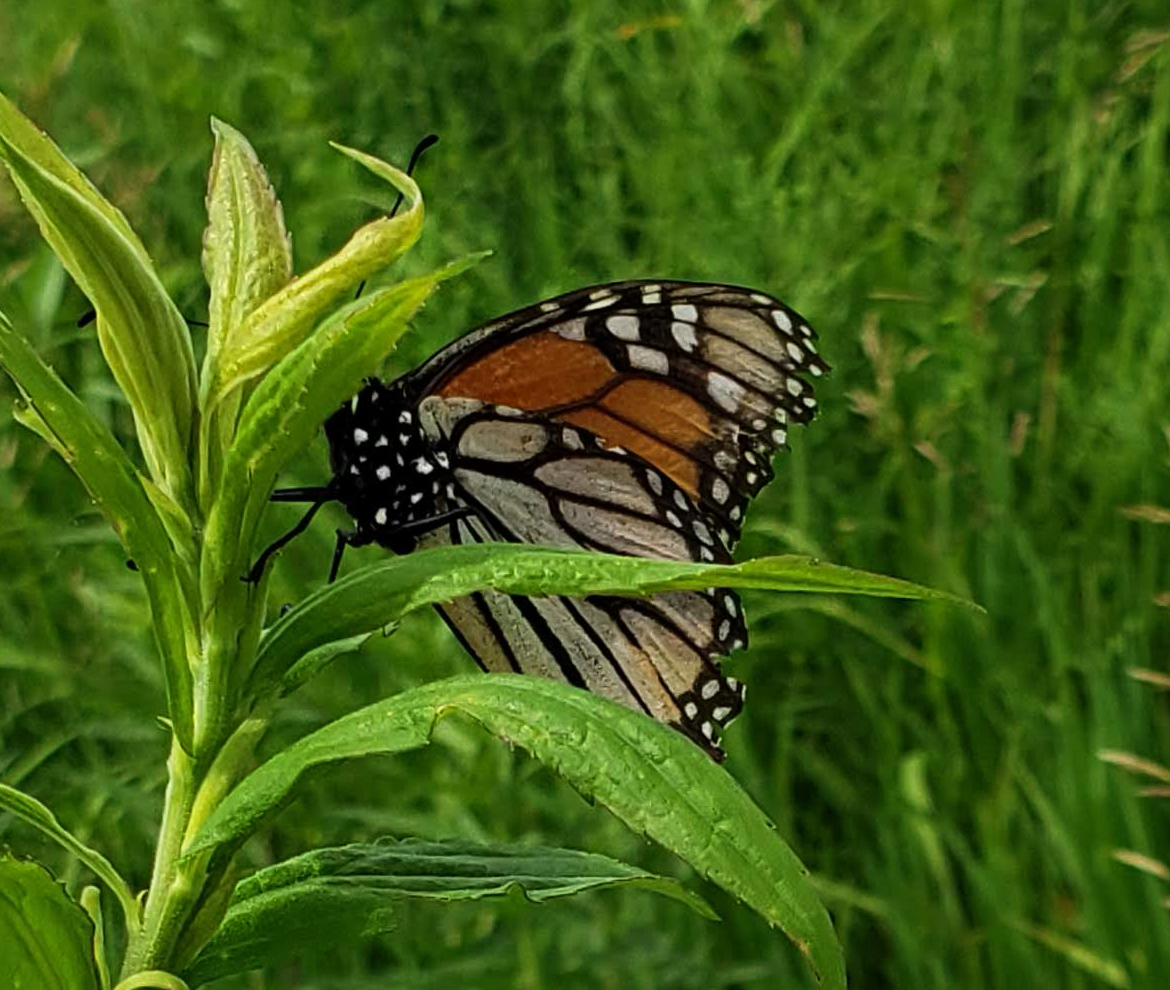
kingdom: Animalia
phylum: Arthropoda
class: Insecta
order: Lepidoptera
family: Nymphalidae
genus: Danaus
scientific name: Danaus plexippus
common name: Monarch
